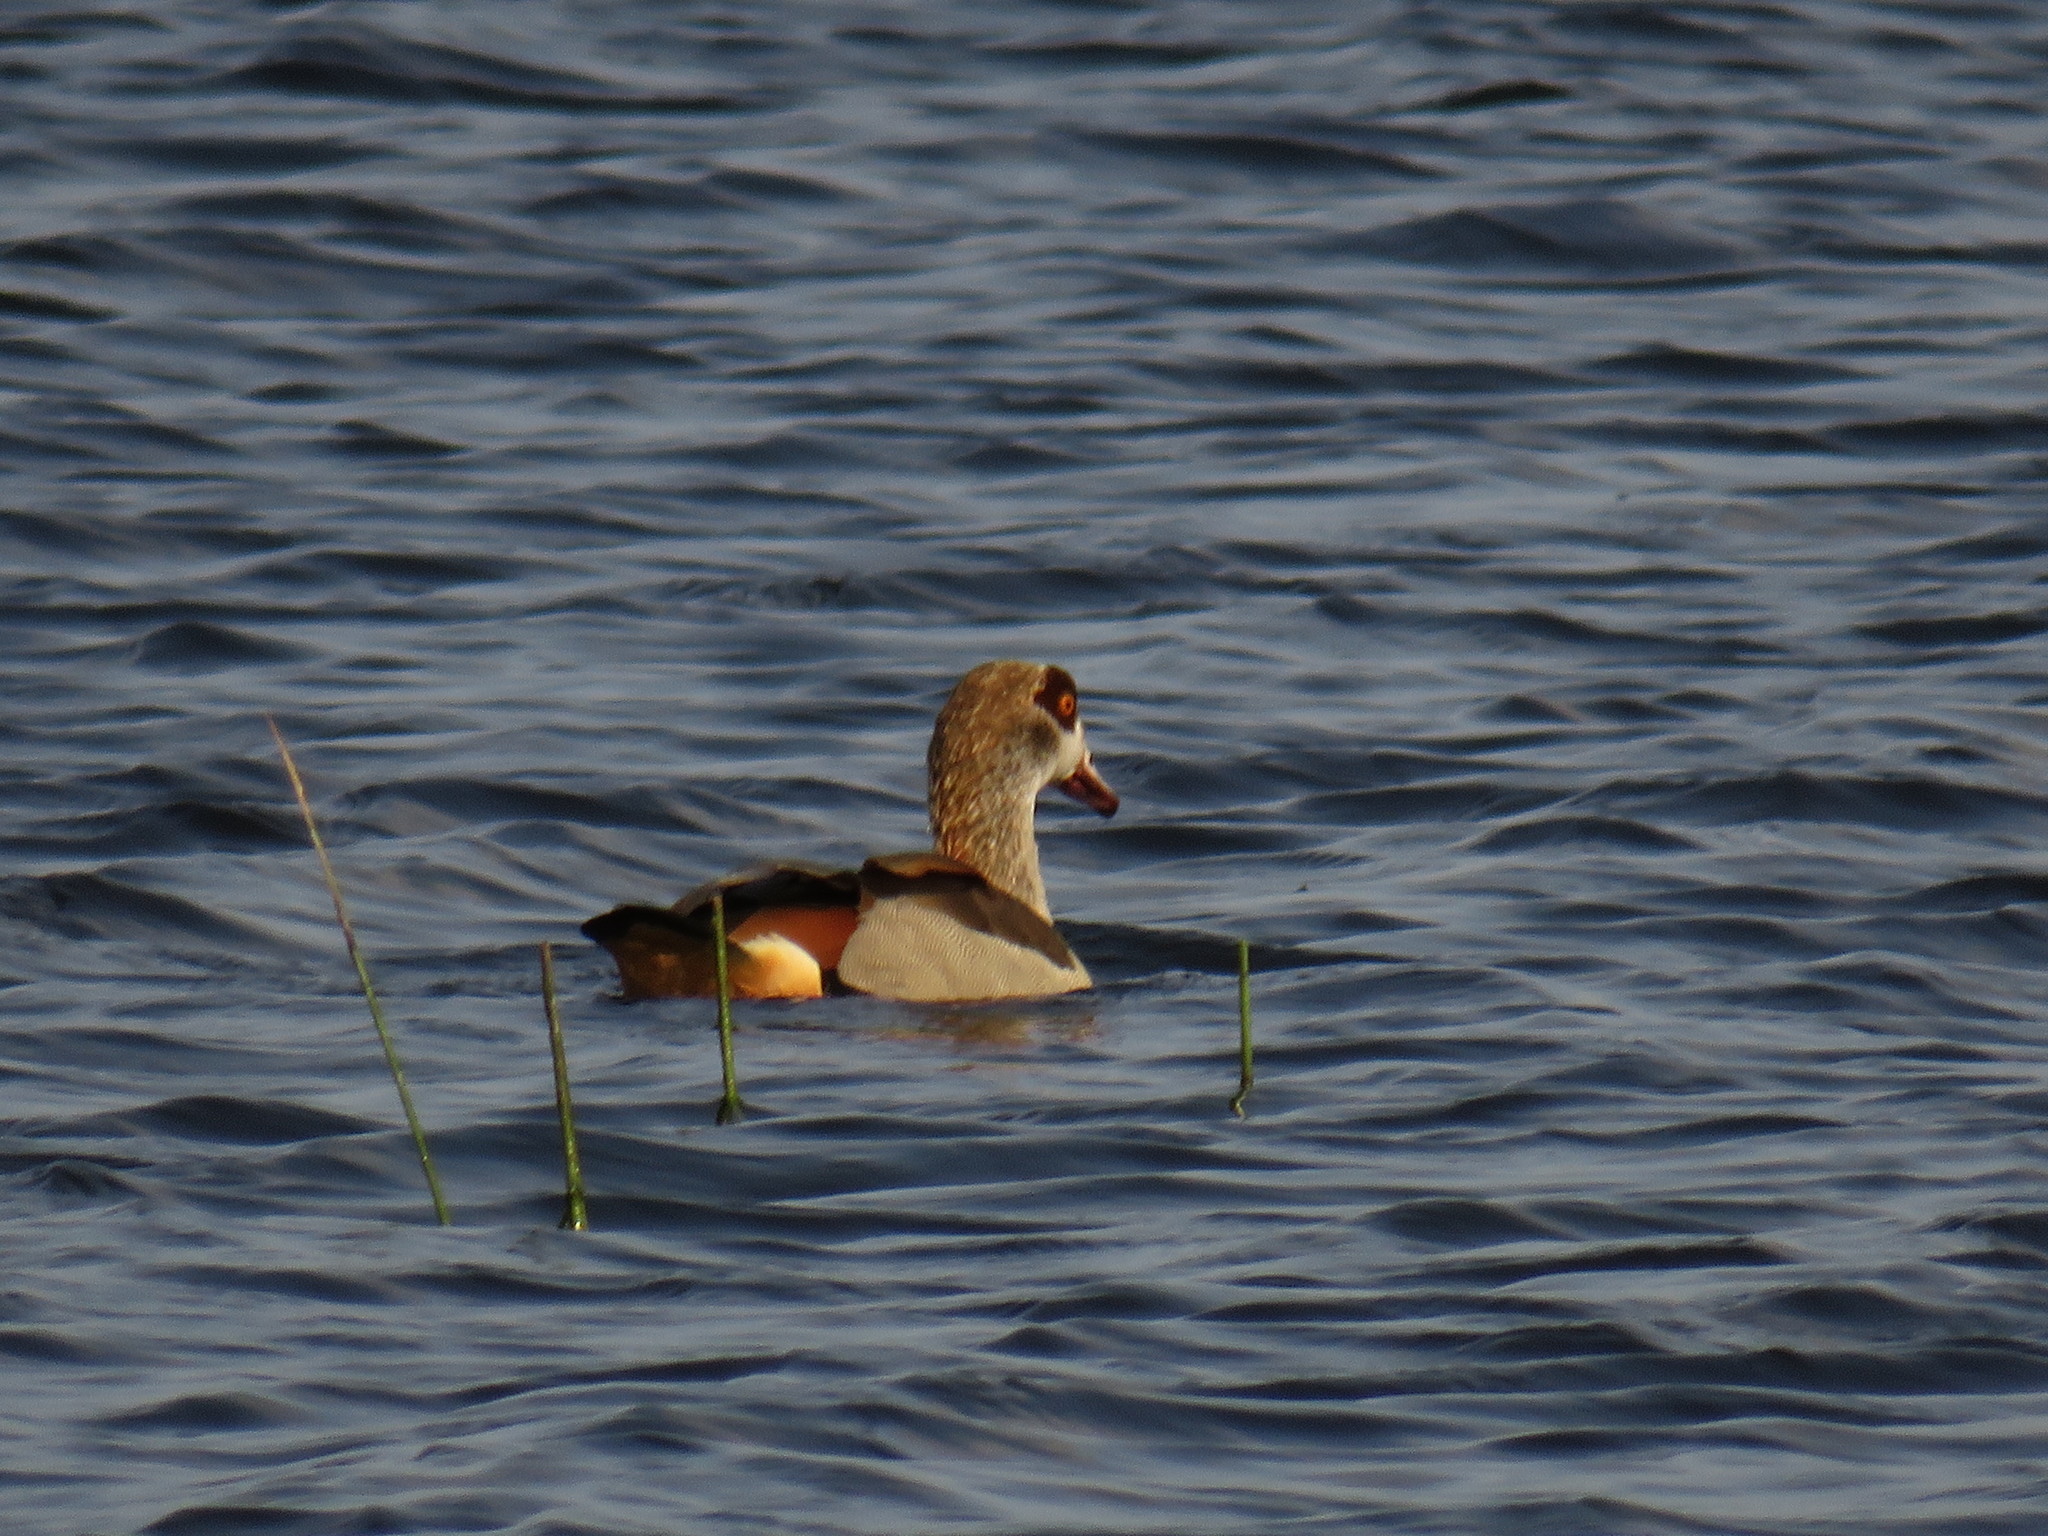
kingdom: Animalia
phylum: Chordata
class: Aves
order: Anseriformes
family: Anatidae
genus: Alopochen
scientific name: Alopochen aegyptiaca
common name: Egyptian goose
